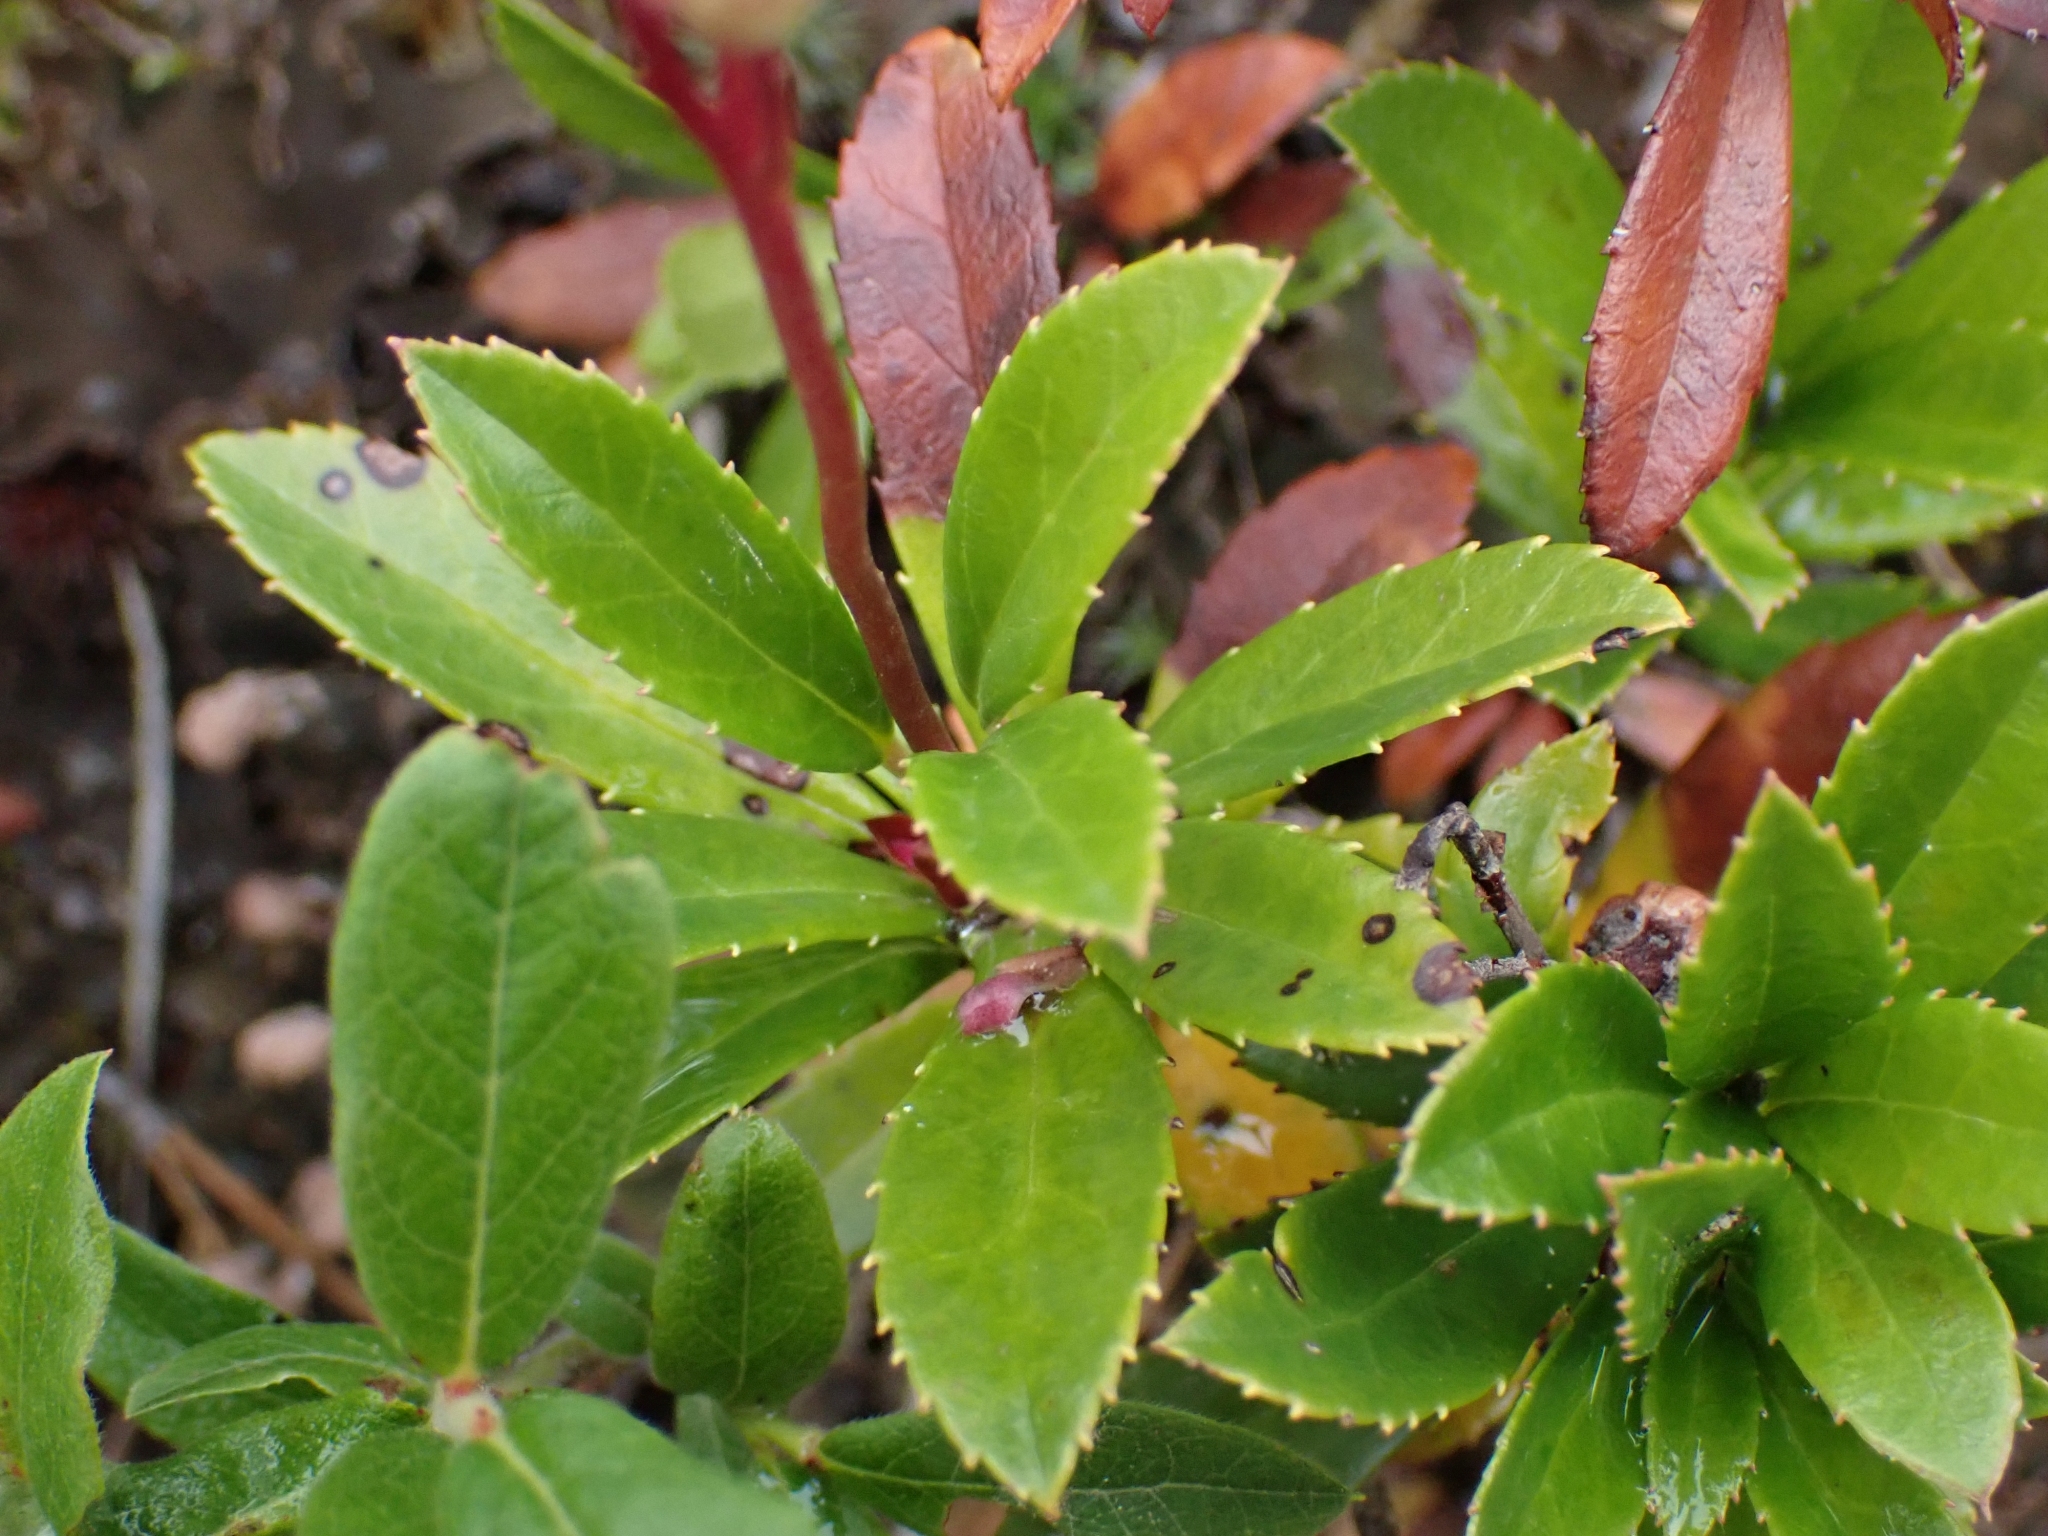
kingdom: Plantae
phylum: Tracheophyta
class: Magnoliopsida
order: Ericales
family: Ericaceae
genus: Chimaphila
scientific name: Chimaphila umbellata
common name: Pipsissewa
